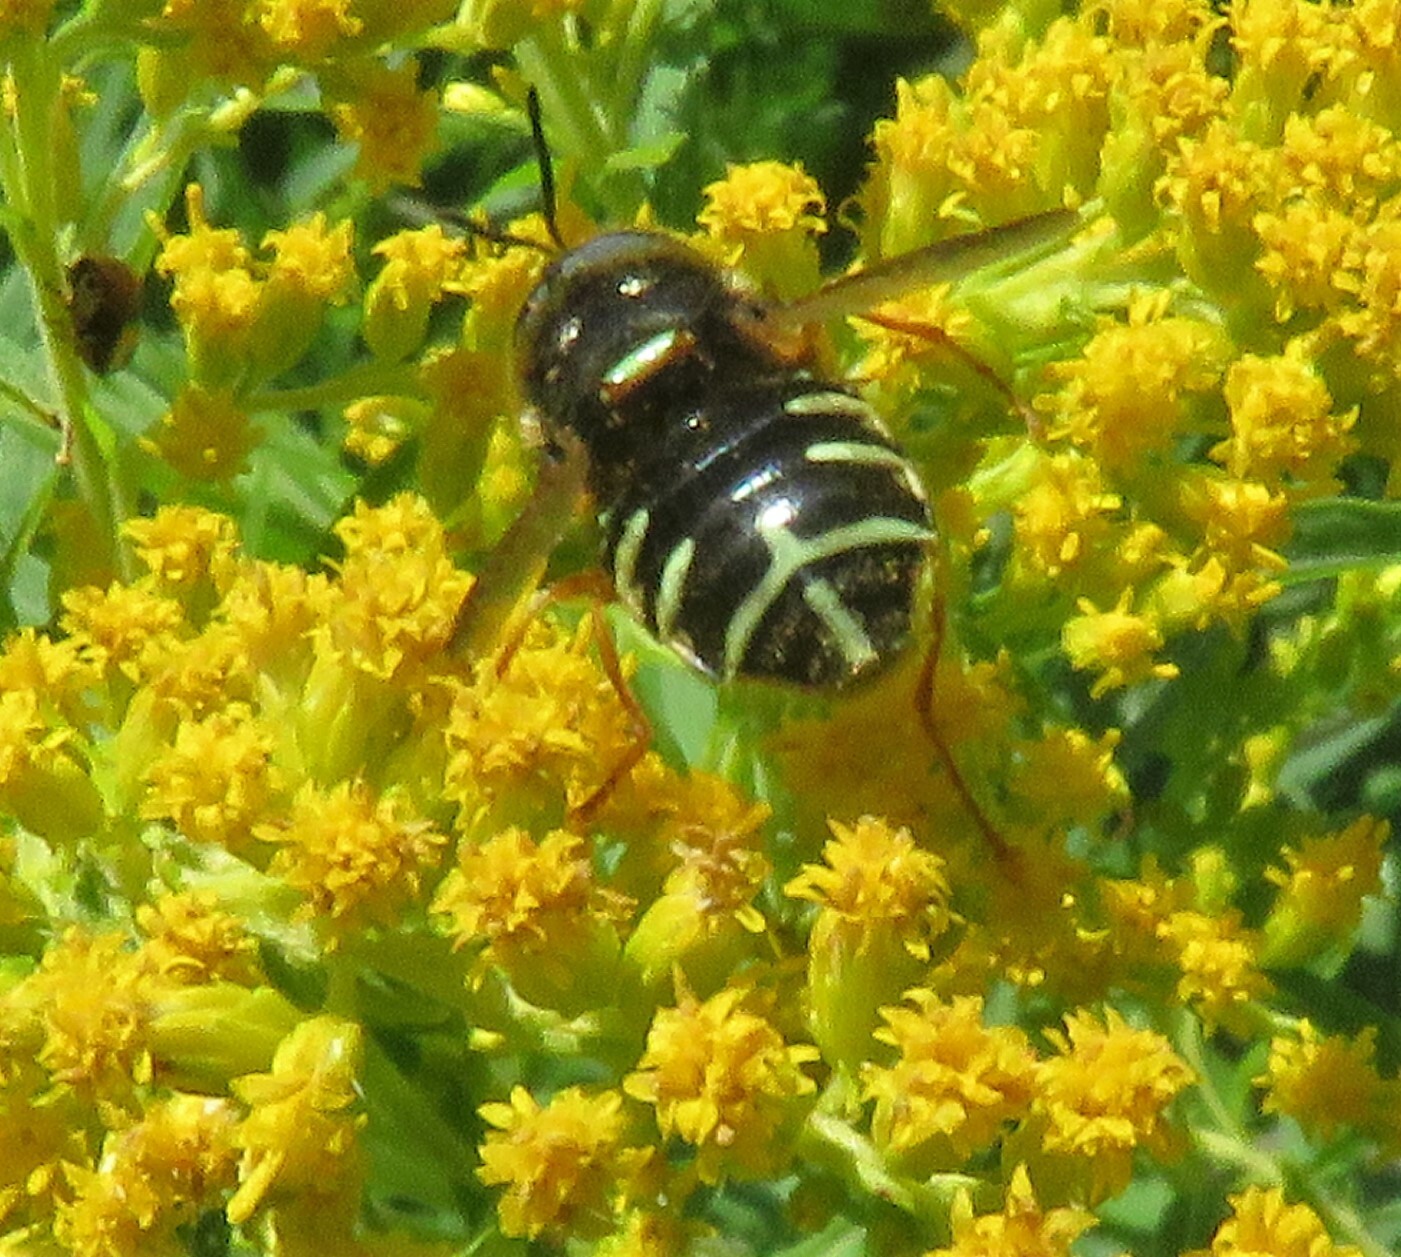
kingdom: Animalia
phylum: Arthropoda
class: Insecta
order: Diptera
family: Stratiomyidae
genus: Stratiomys
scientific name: Stratiomys badia
